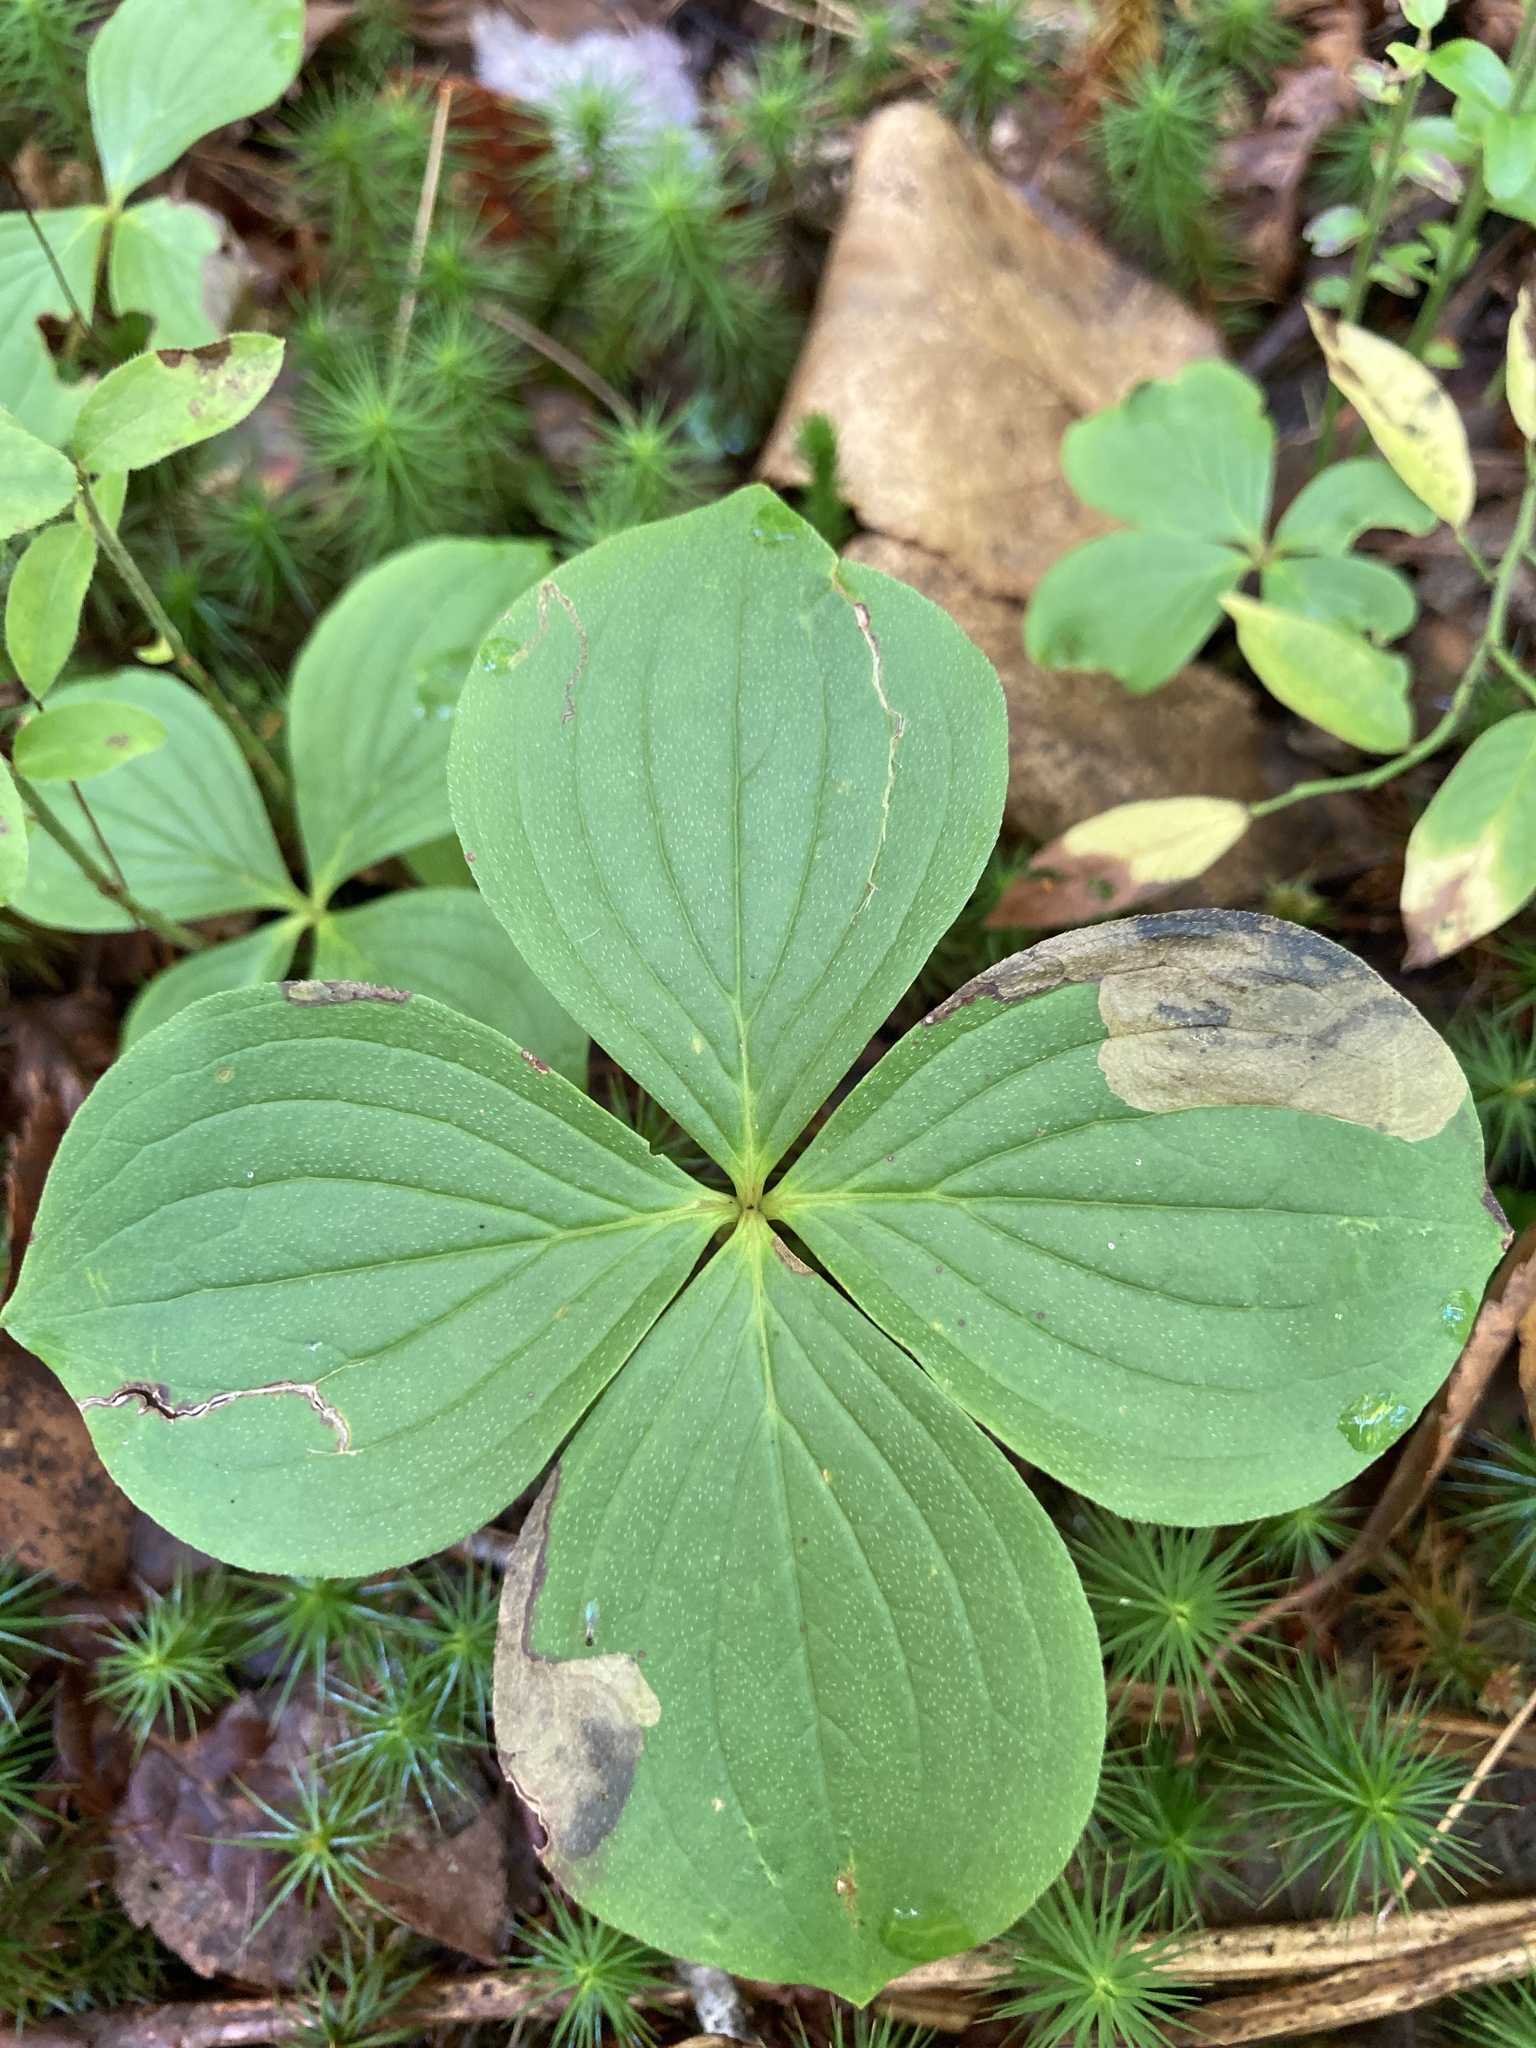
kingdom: Plantae
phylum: Tracheophyta
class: Magnoliopsida
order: Cornales
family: Cornaceae
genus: Cornus
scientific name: Cornus canadensis
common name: Creeping dogwood
